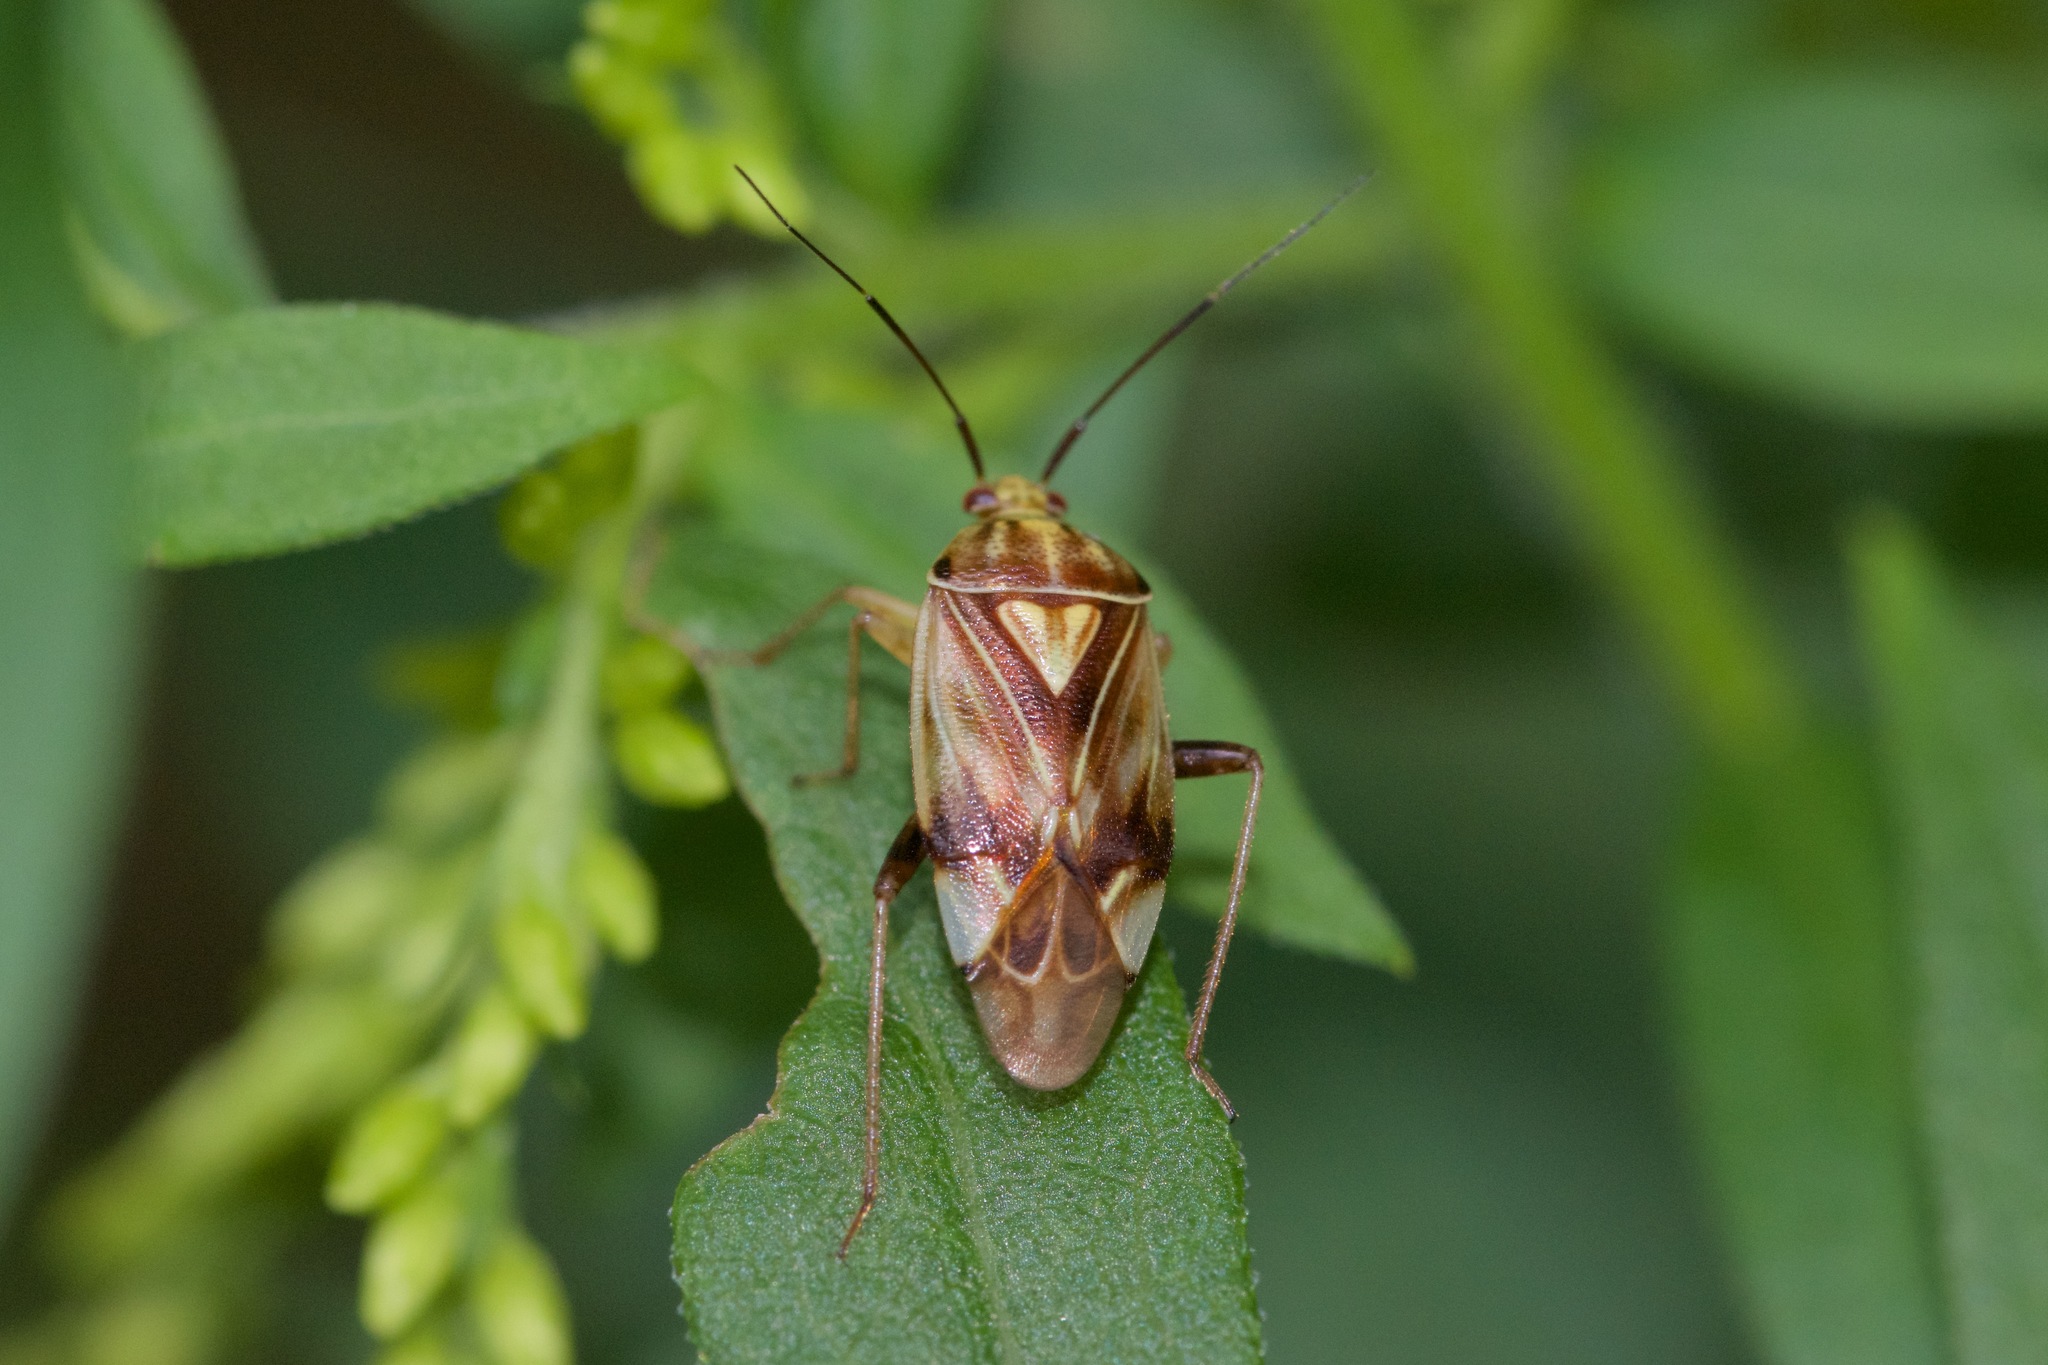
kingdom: Animalia
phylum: Arthropoda
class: Insecta
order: Hemiptera
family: Miridae
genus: Lygus
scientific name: Lygus lineolaris
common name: North american tarnished plant bug
